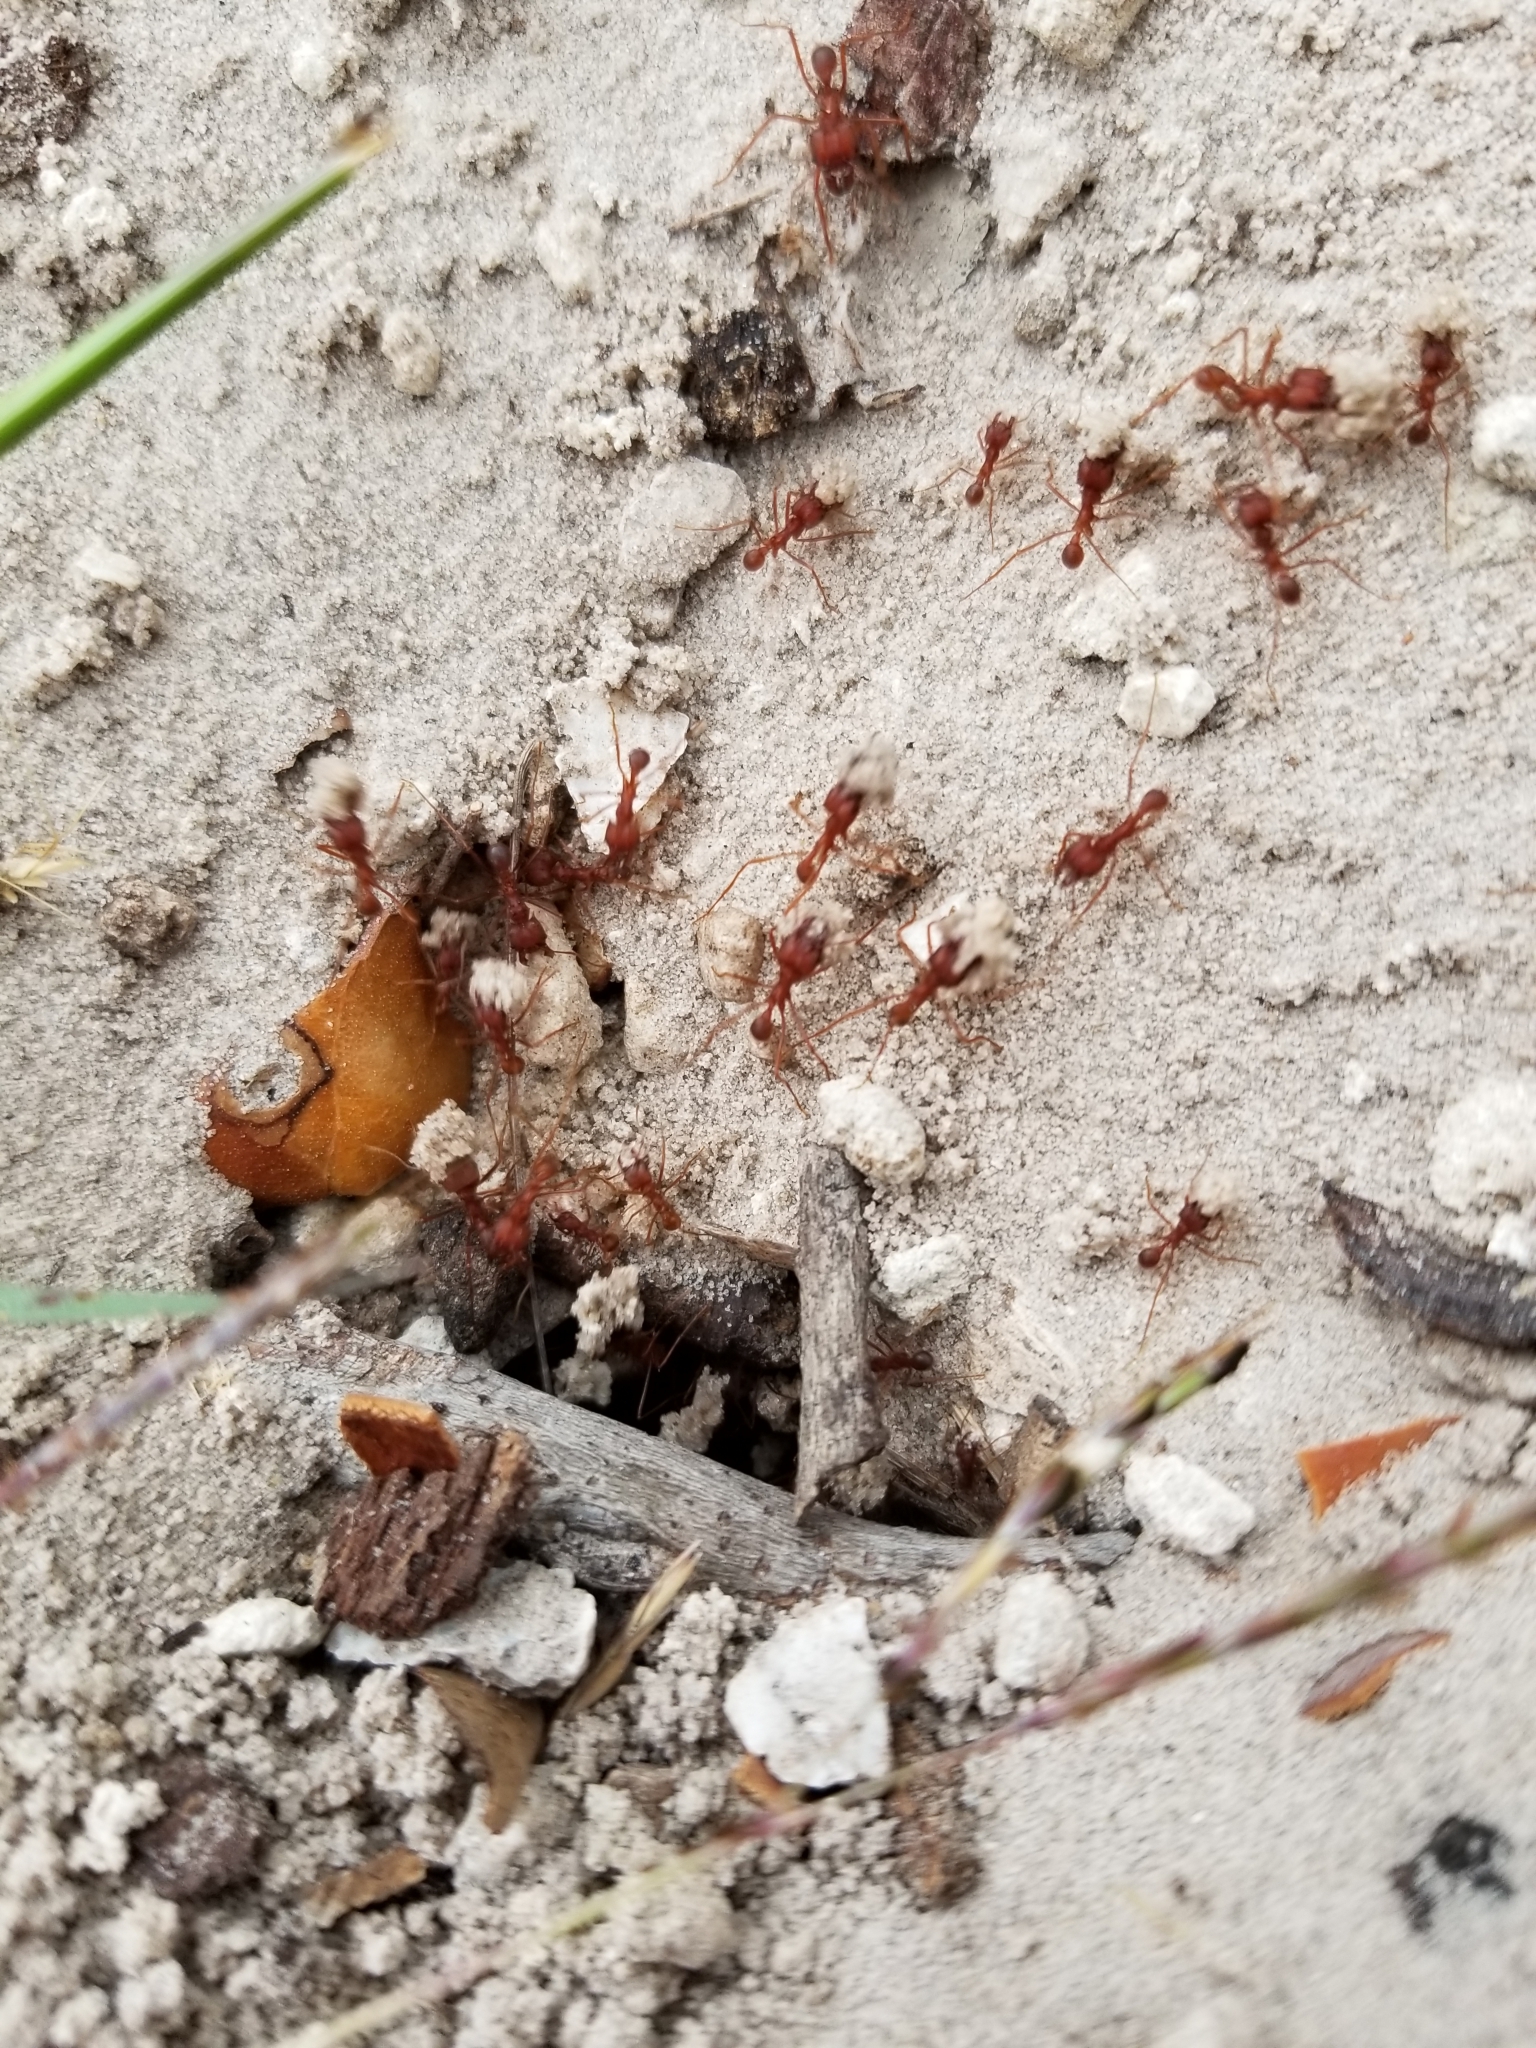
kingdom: Animalia
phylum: Arthropoda
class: Insecta
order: Hymenoptera
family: Formicidae
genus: Atta
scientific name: Atta texana
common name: Texas leafcutting ant
